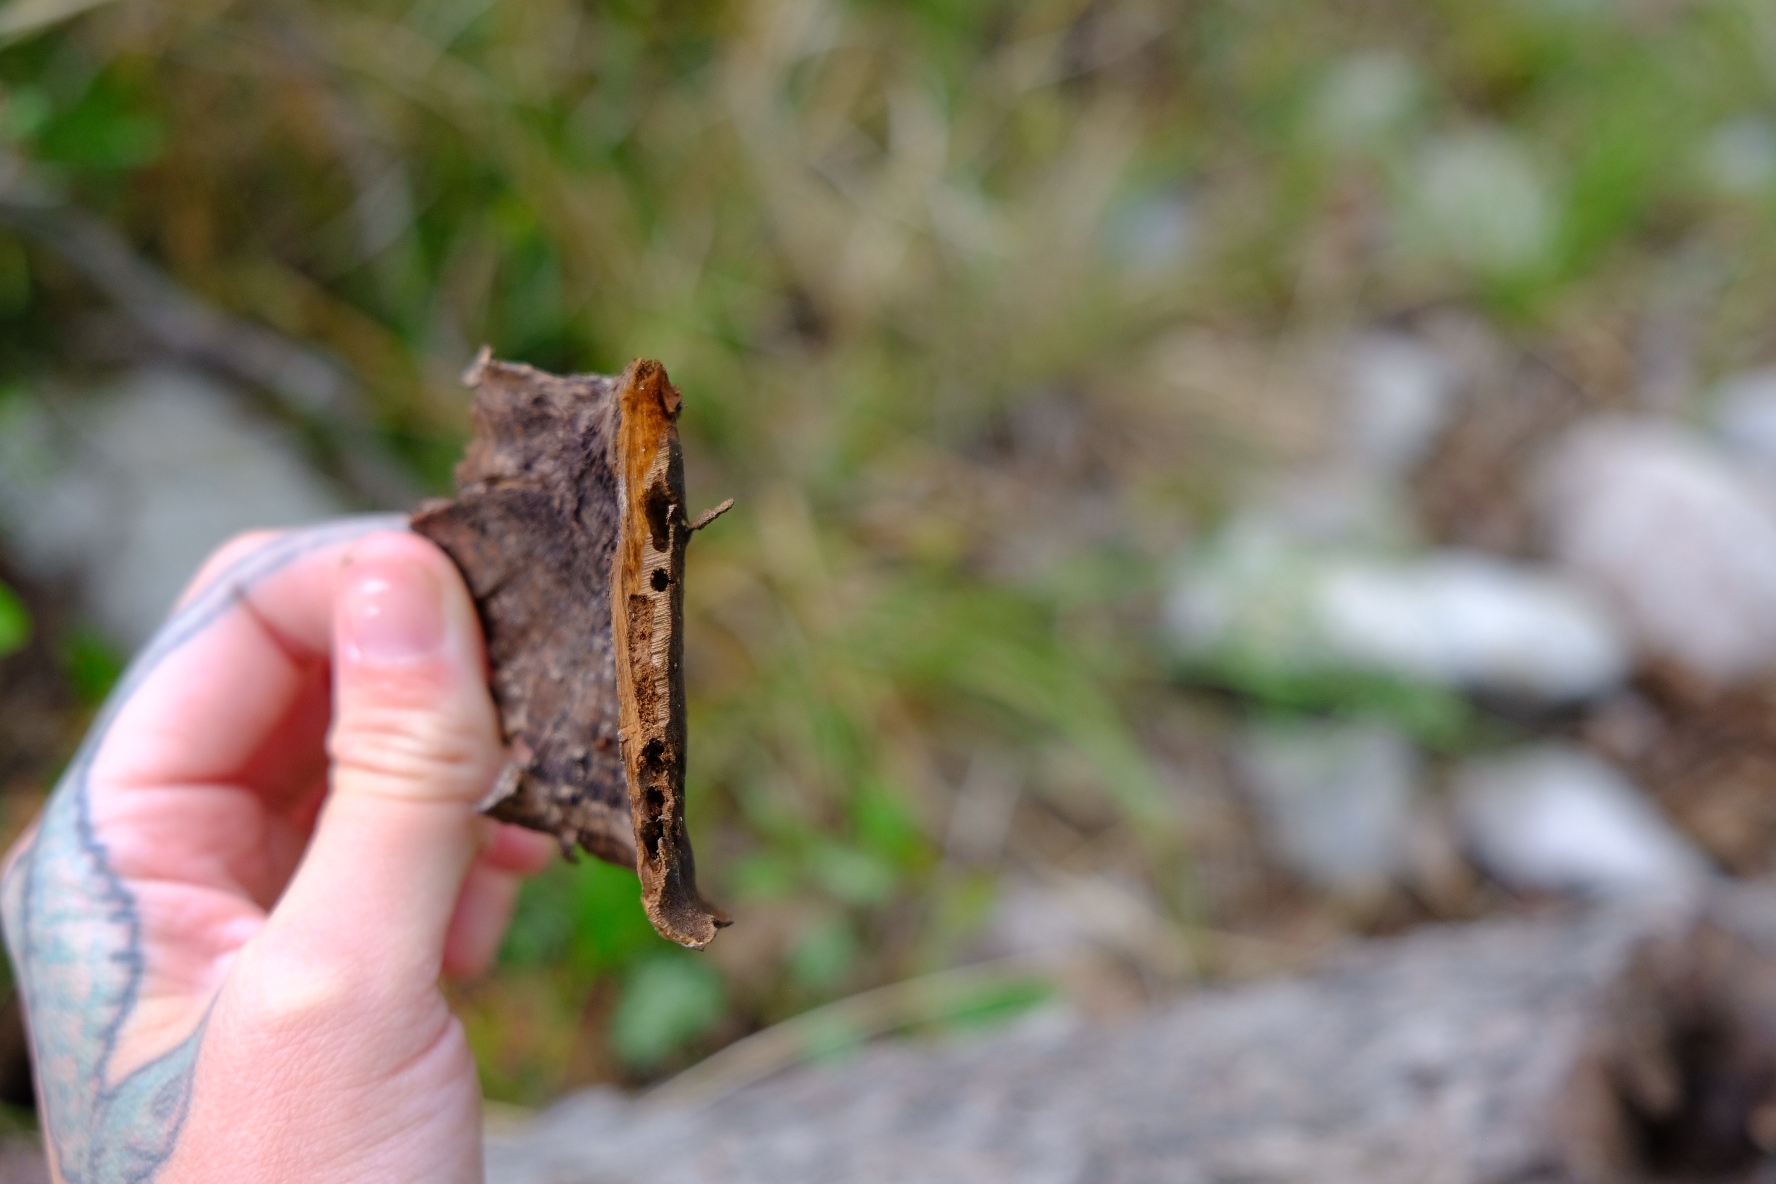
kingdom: Fungi
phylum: Basidiomycota
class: Agaricomycetes
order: Polyporales
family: Cerrenaceae
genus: Cerrena
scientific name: Cerrena hydnoides
